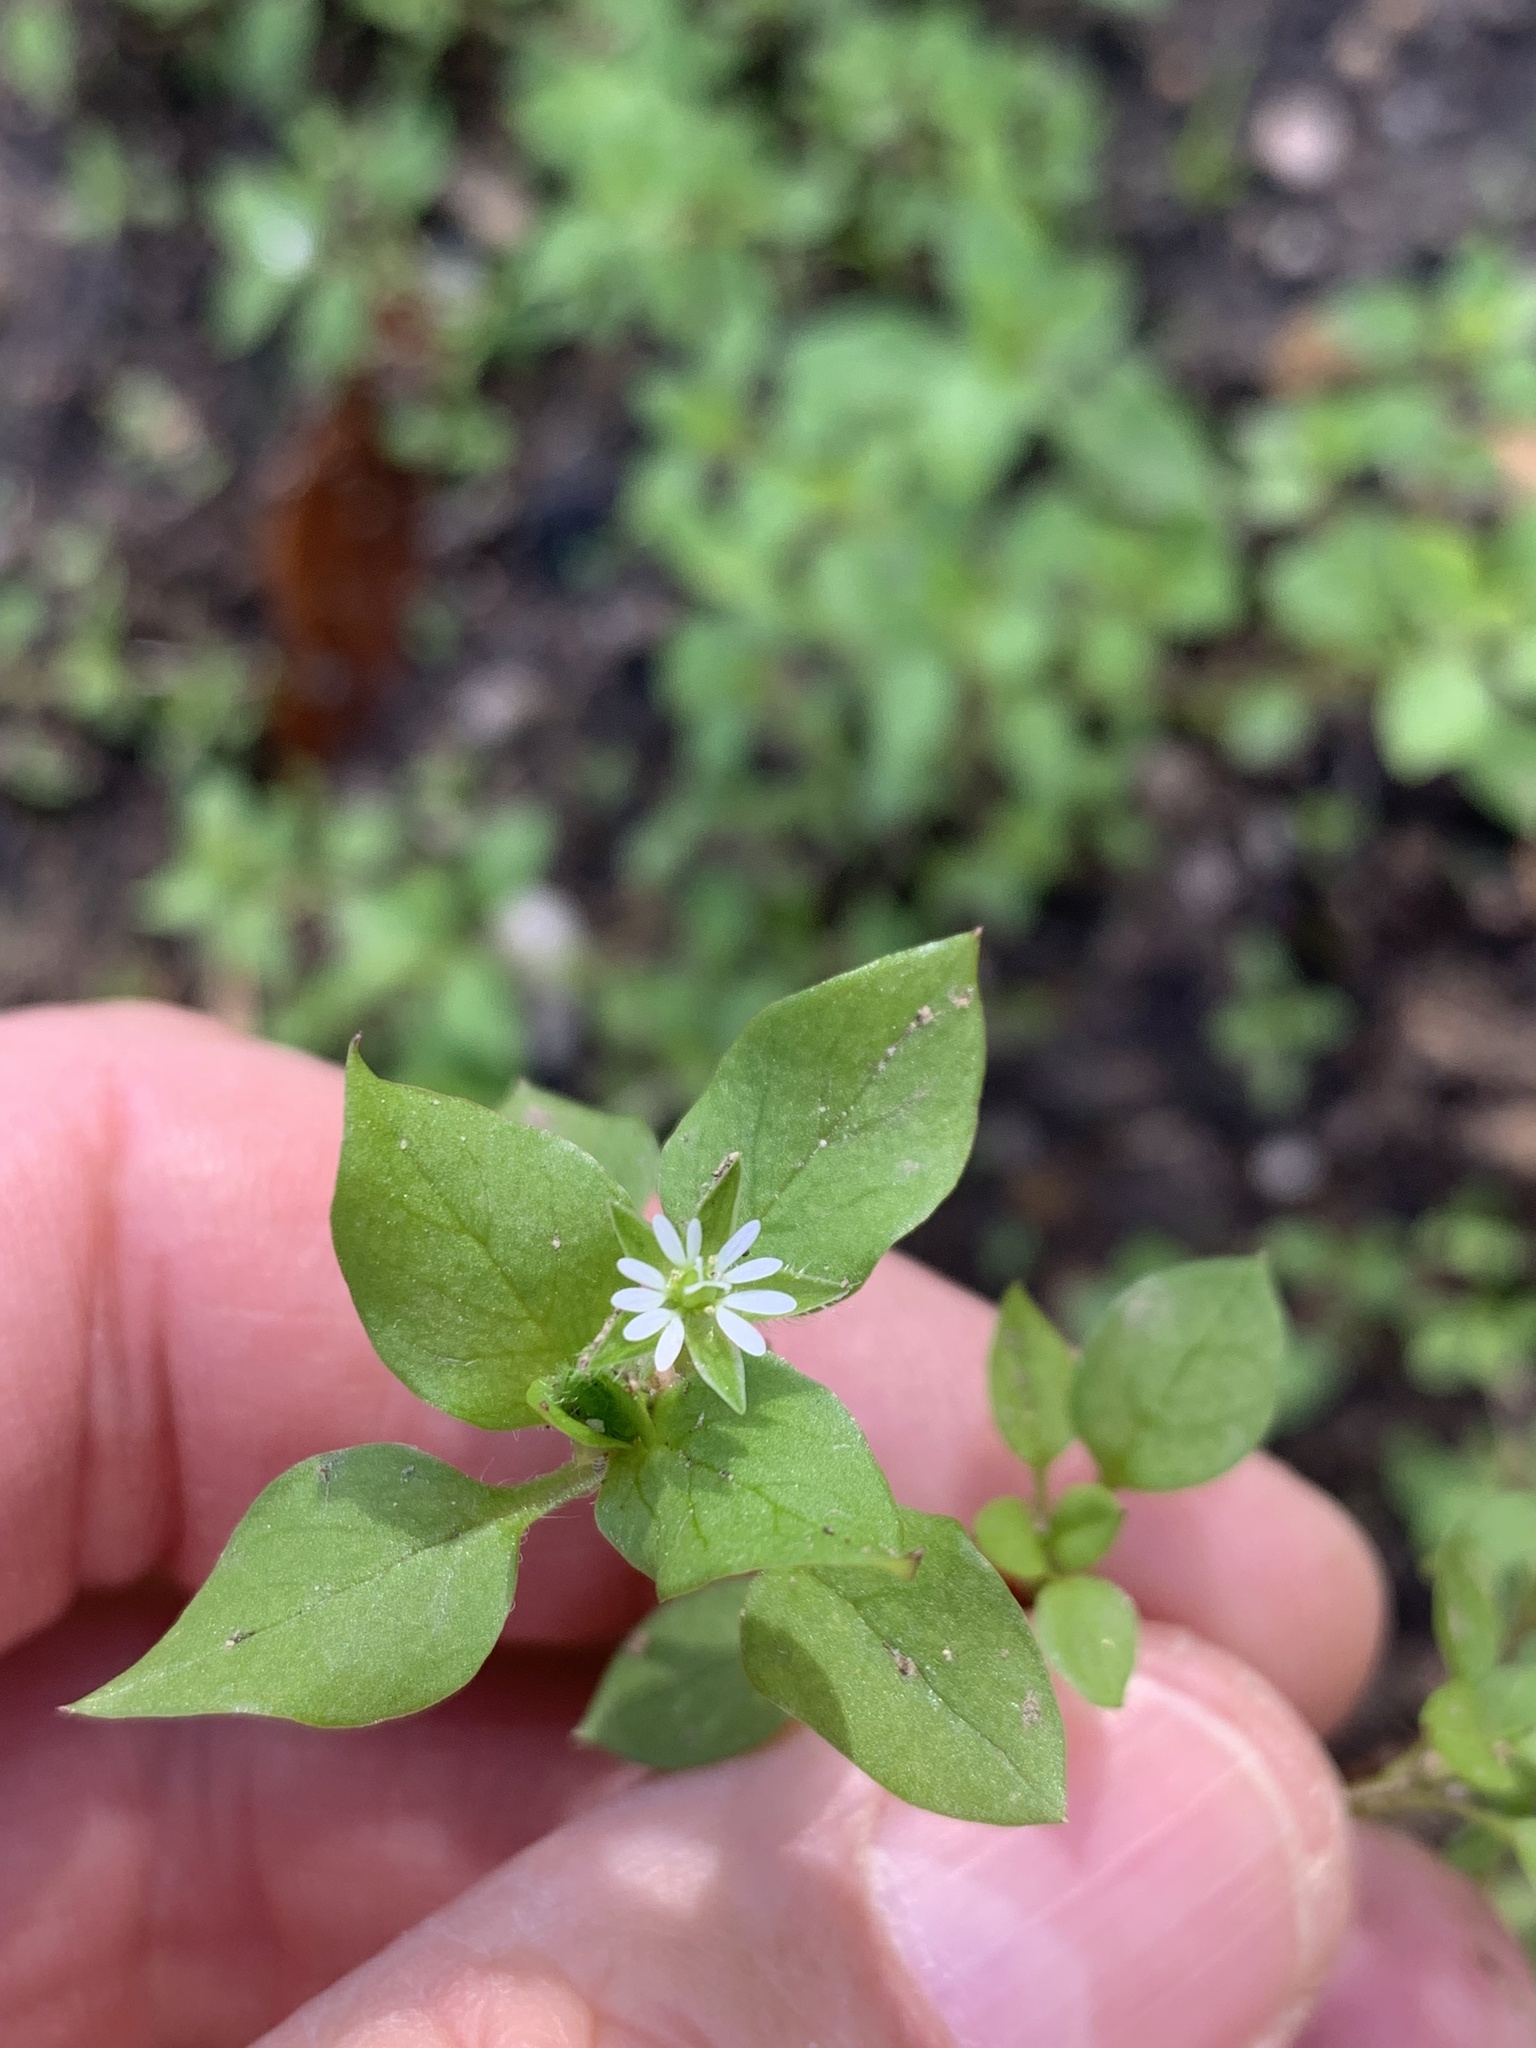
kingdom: Plantae
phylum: Tracheophyta
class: Magnoliopsida
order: Caryophyllales
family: Caryophyllaceae
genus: Stellaria
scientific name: Stellaria media
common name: Common chickweed
